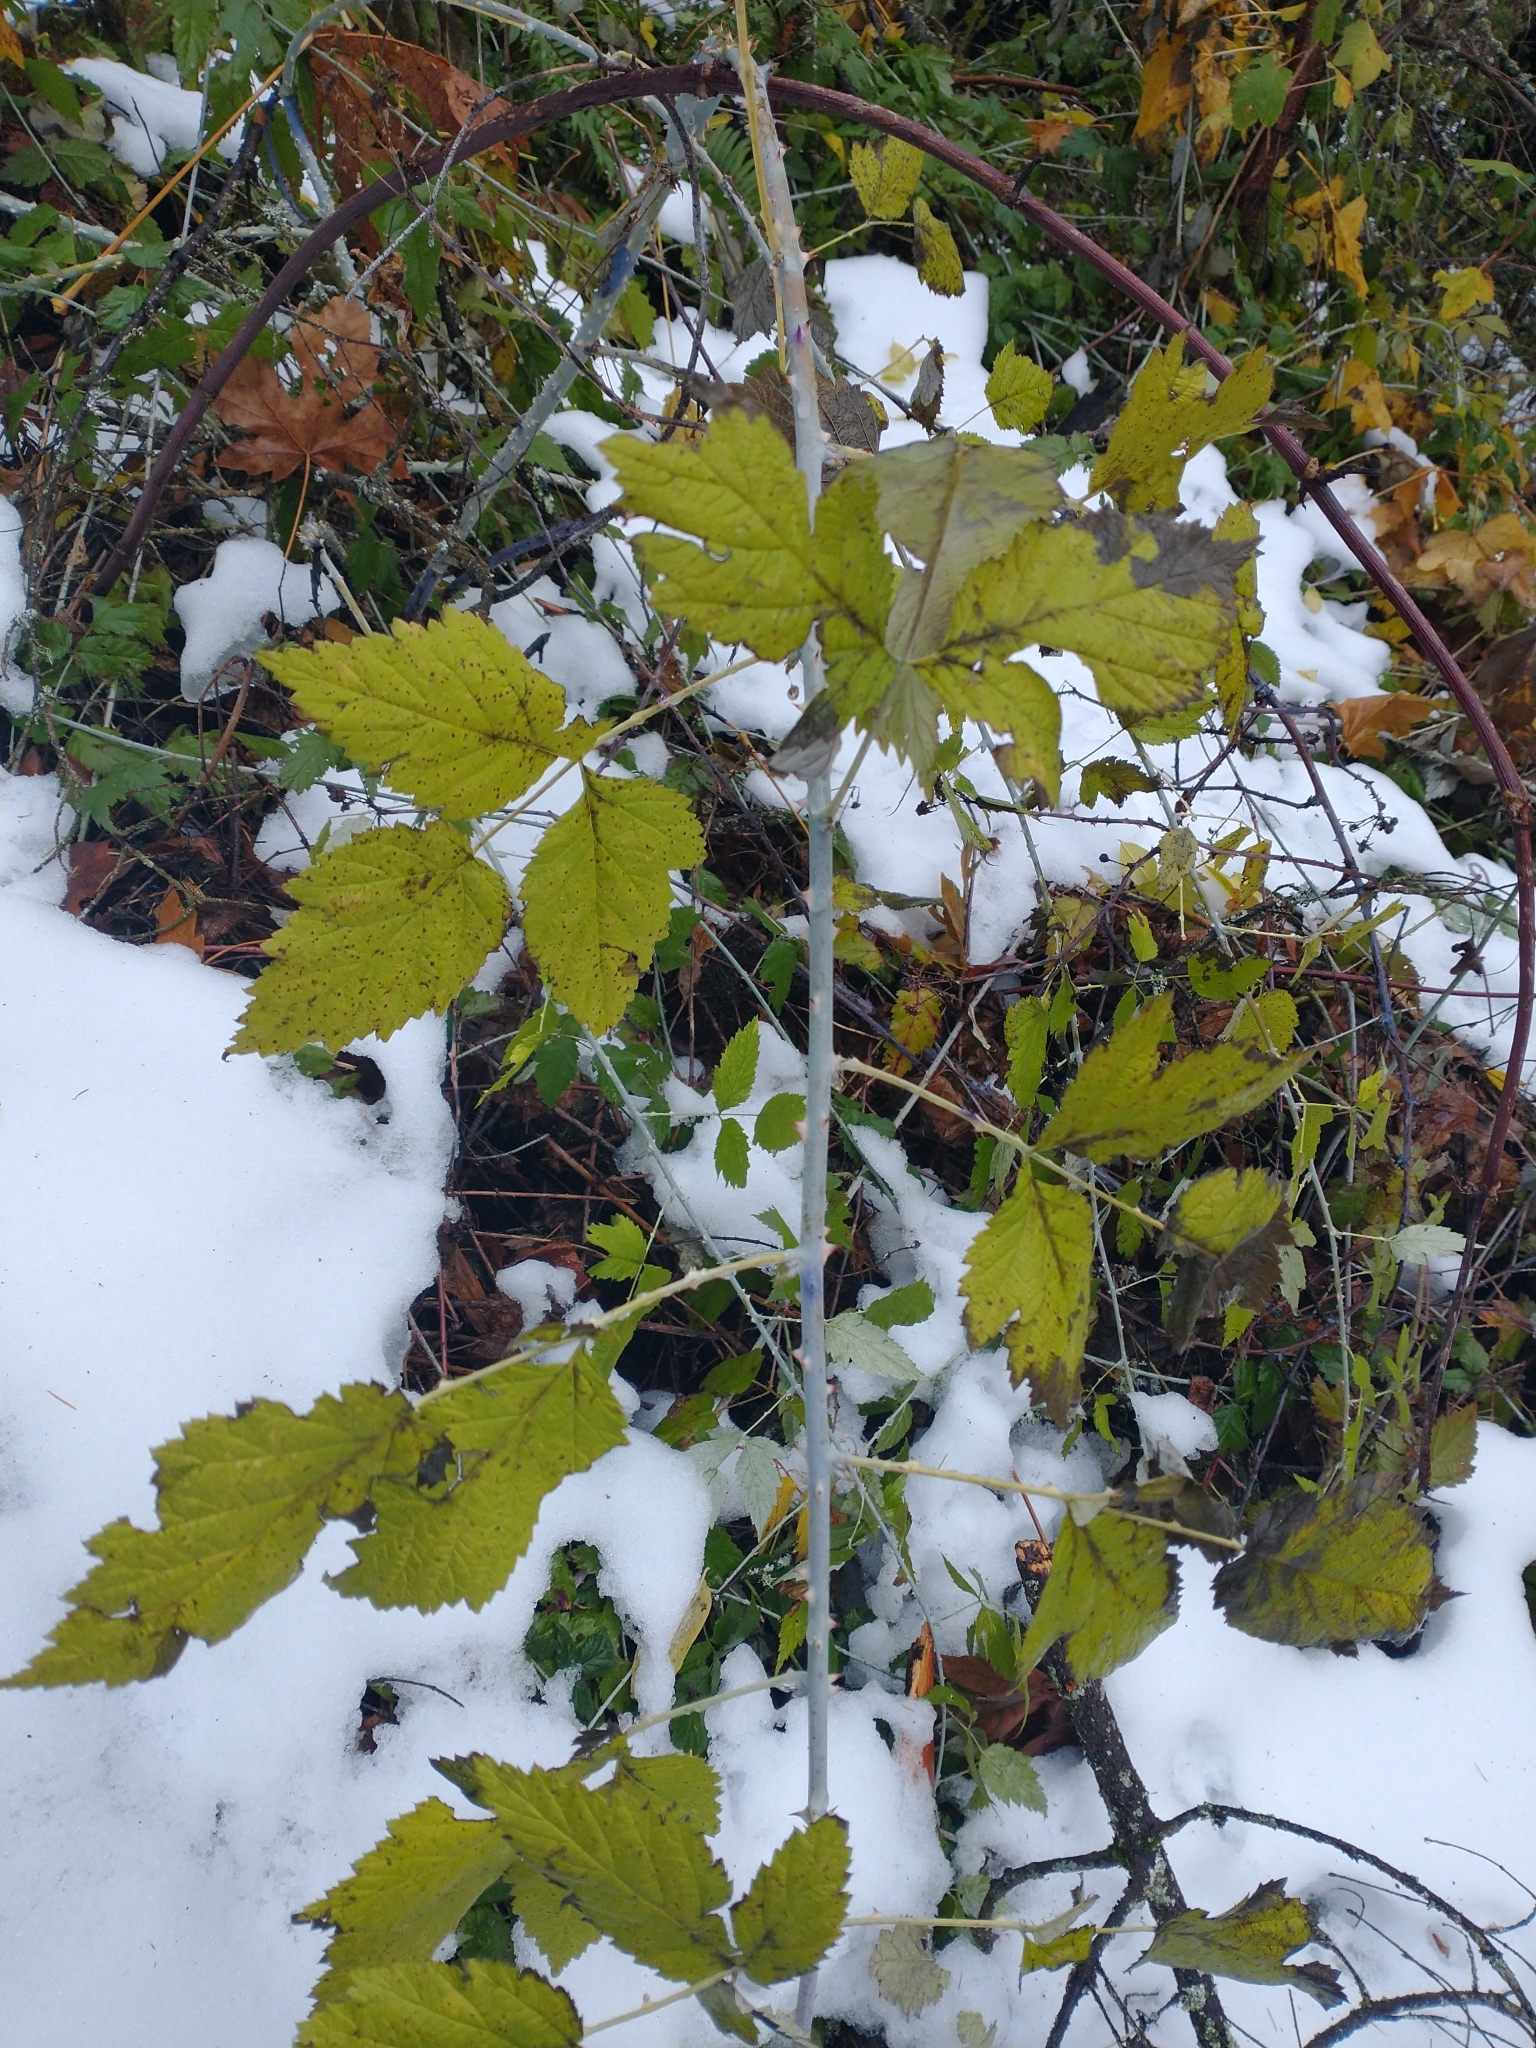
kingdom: Plantae
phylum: Tracheophyta
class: Magnoliopsida
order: Rosales
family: Rosaceae
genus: Rubus
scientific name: Rubus leucodermis
